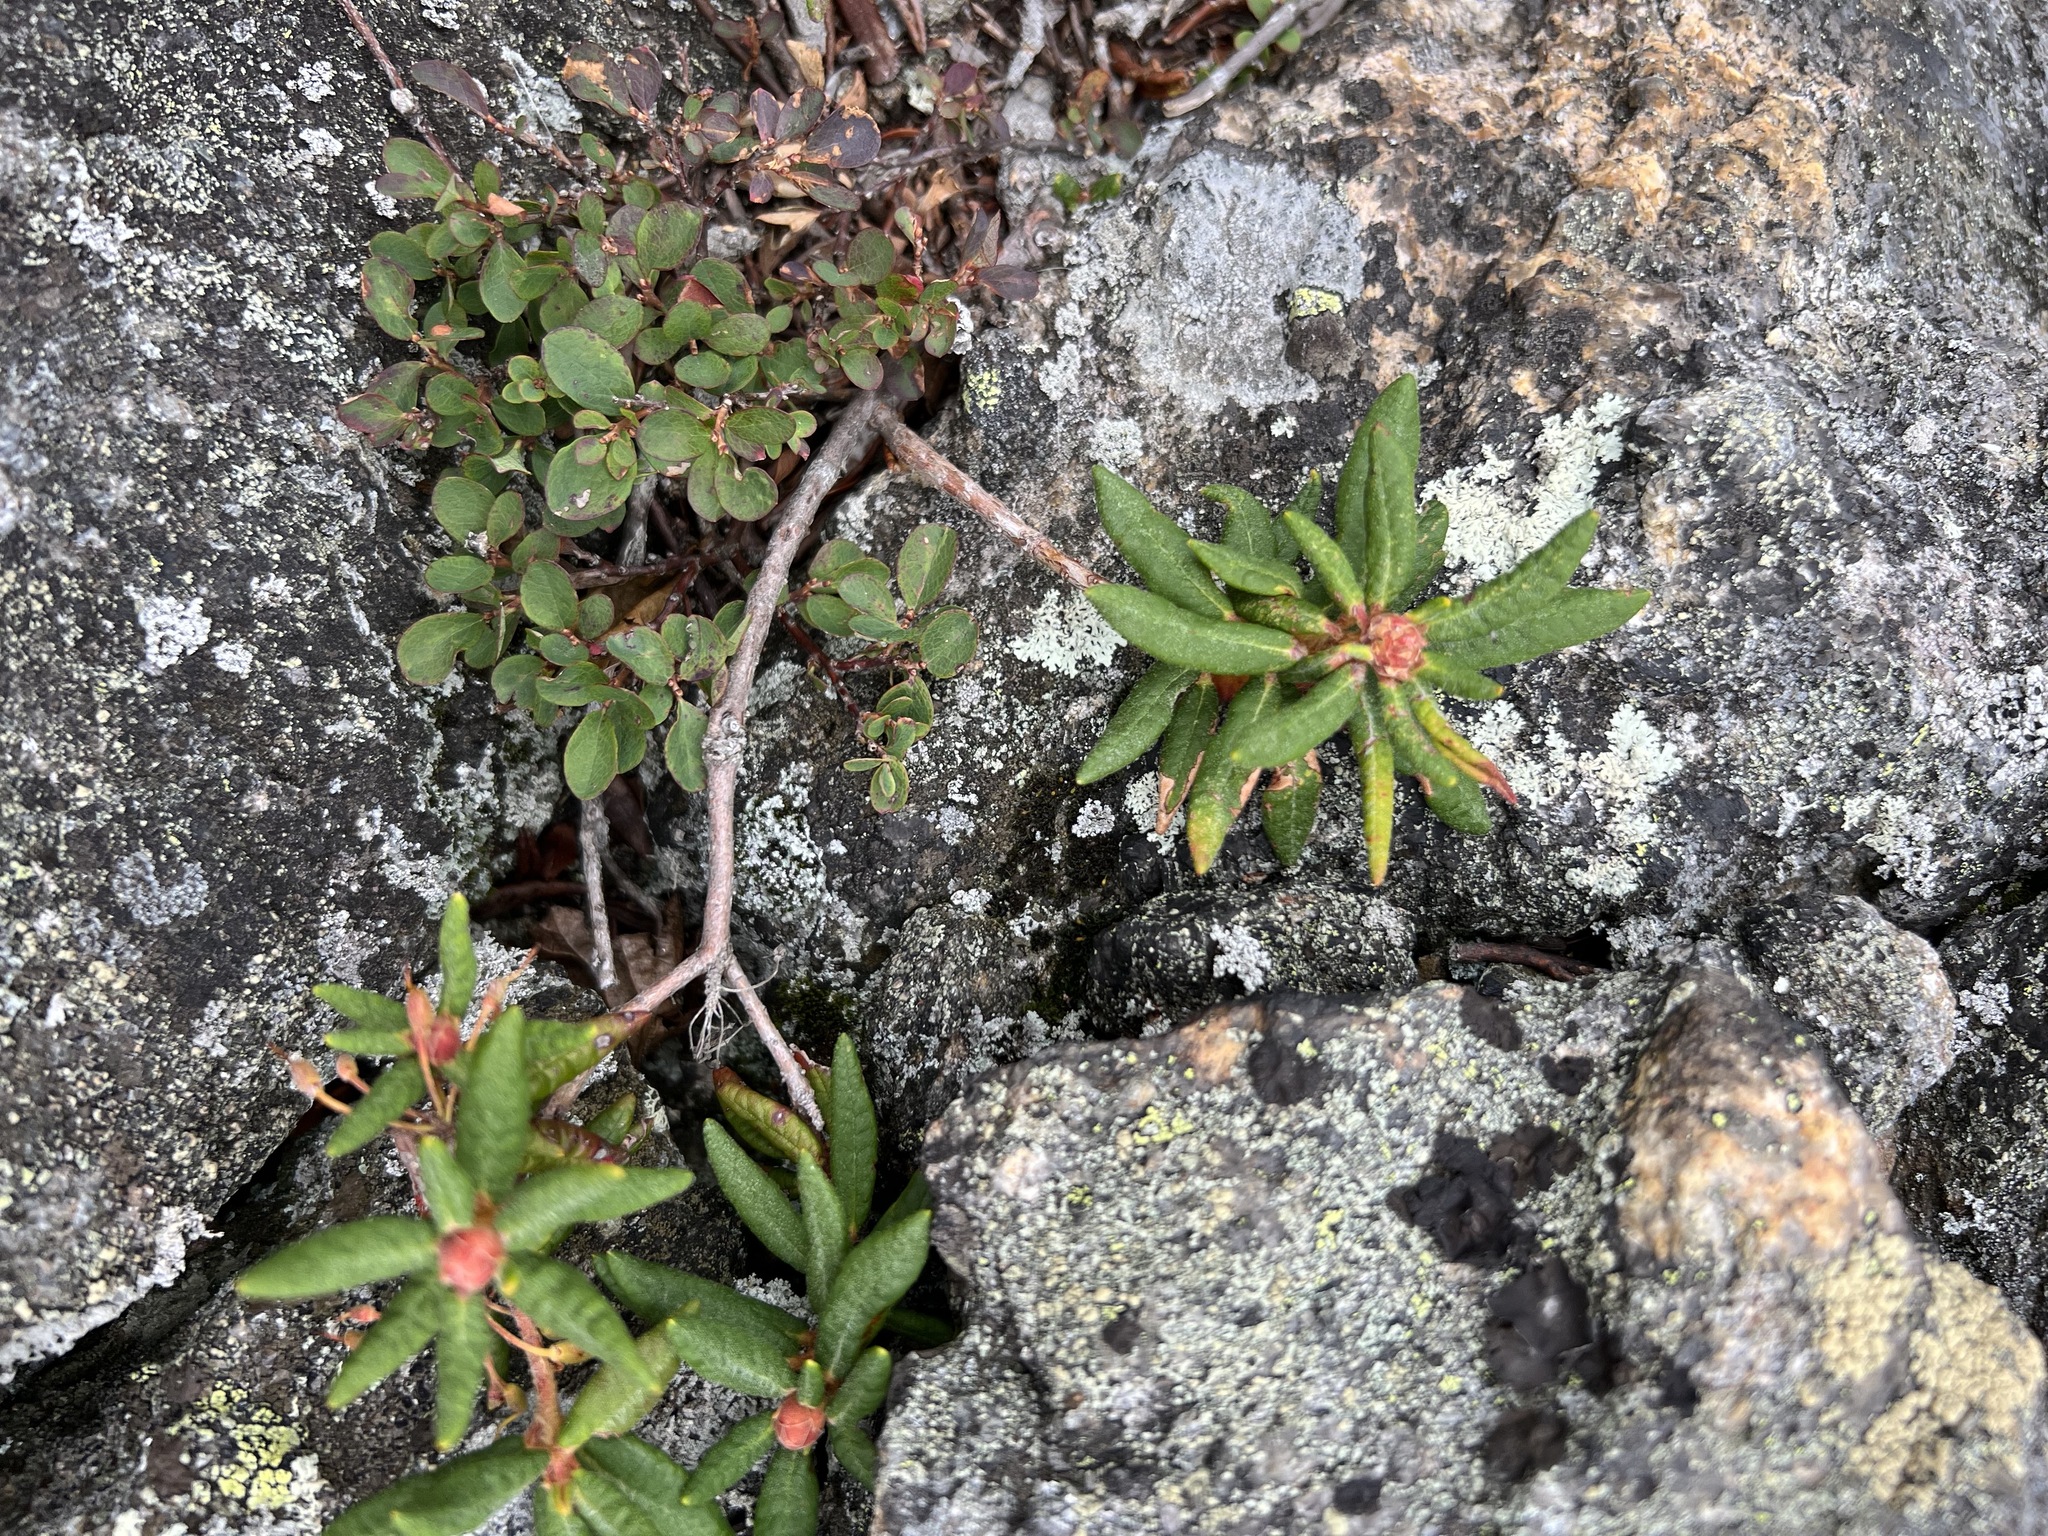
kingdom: Plantae
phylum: Tracheophyta
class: Magnoliopsida
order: Ericales
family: Ericaceae
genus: Rhododendron
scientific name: Rhododendron groenlandicum
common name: Bog labrador tea
